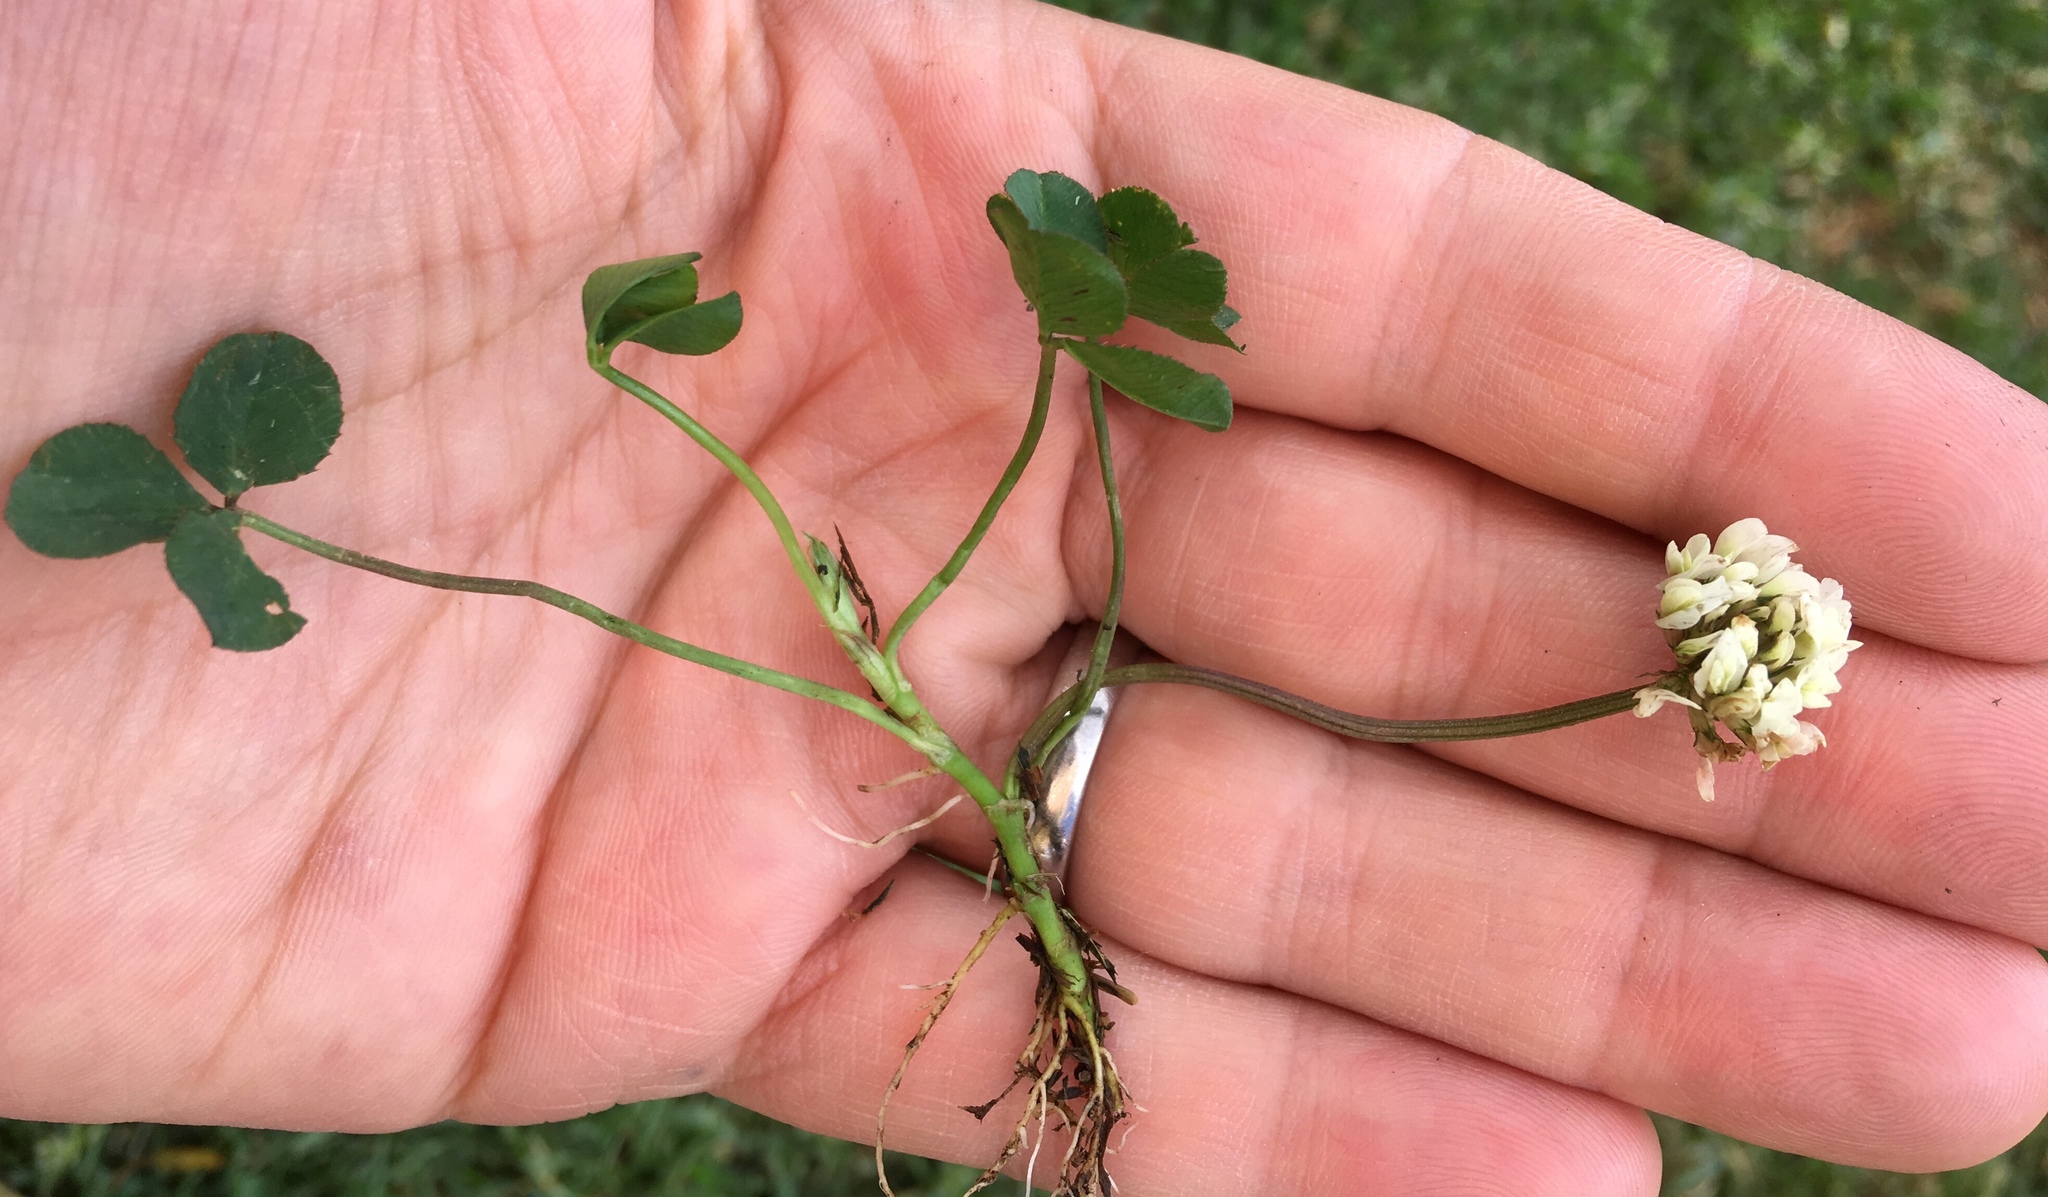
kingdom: Plantae
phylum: Tracheophyta
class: Magnoliopsida
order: Fabales
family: Fabaceae
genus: Trifolium
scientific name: Trifolium repens
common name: White clover
